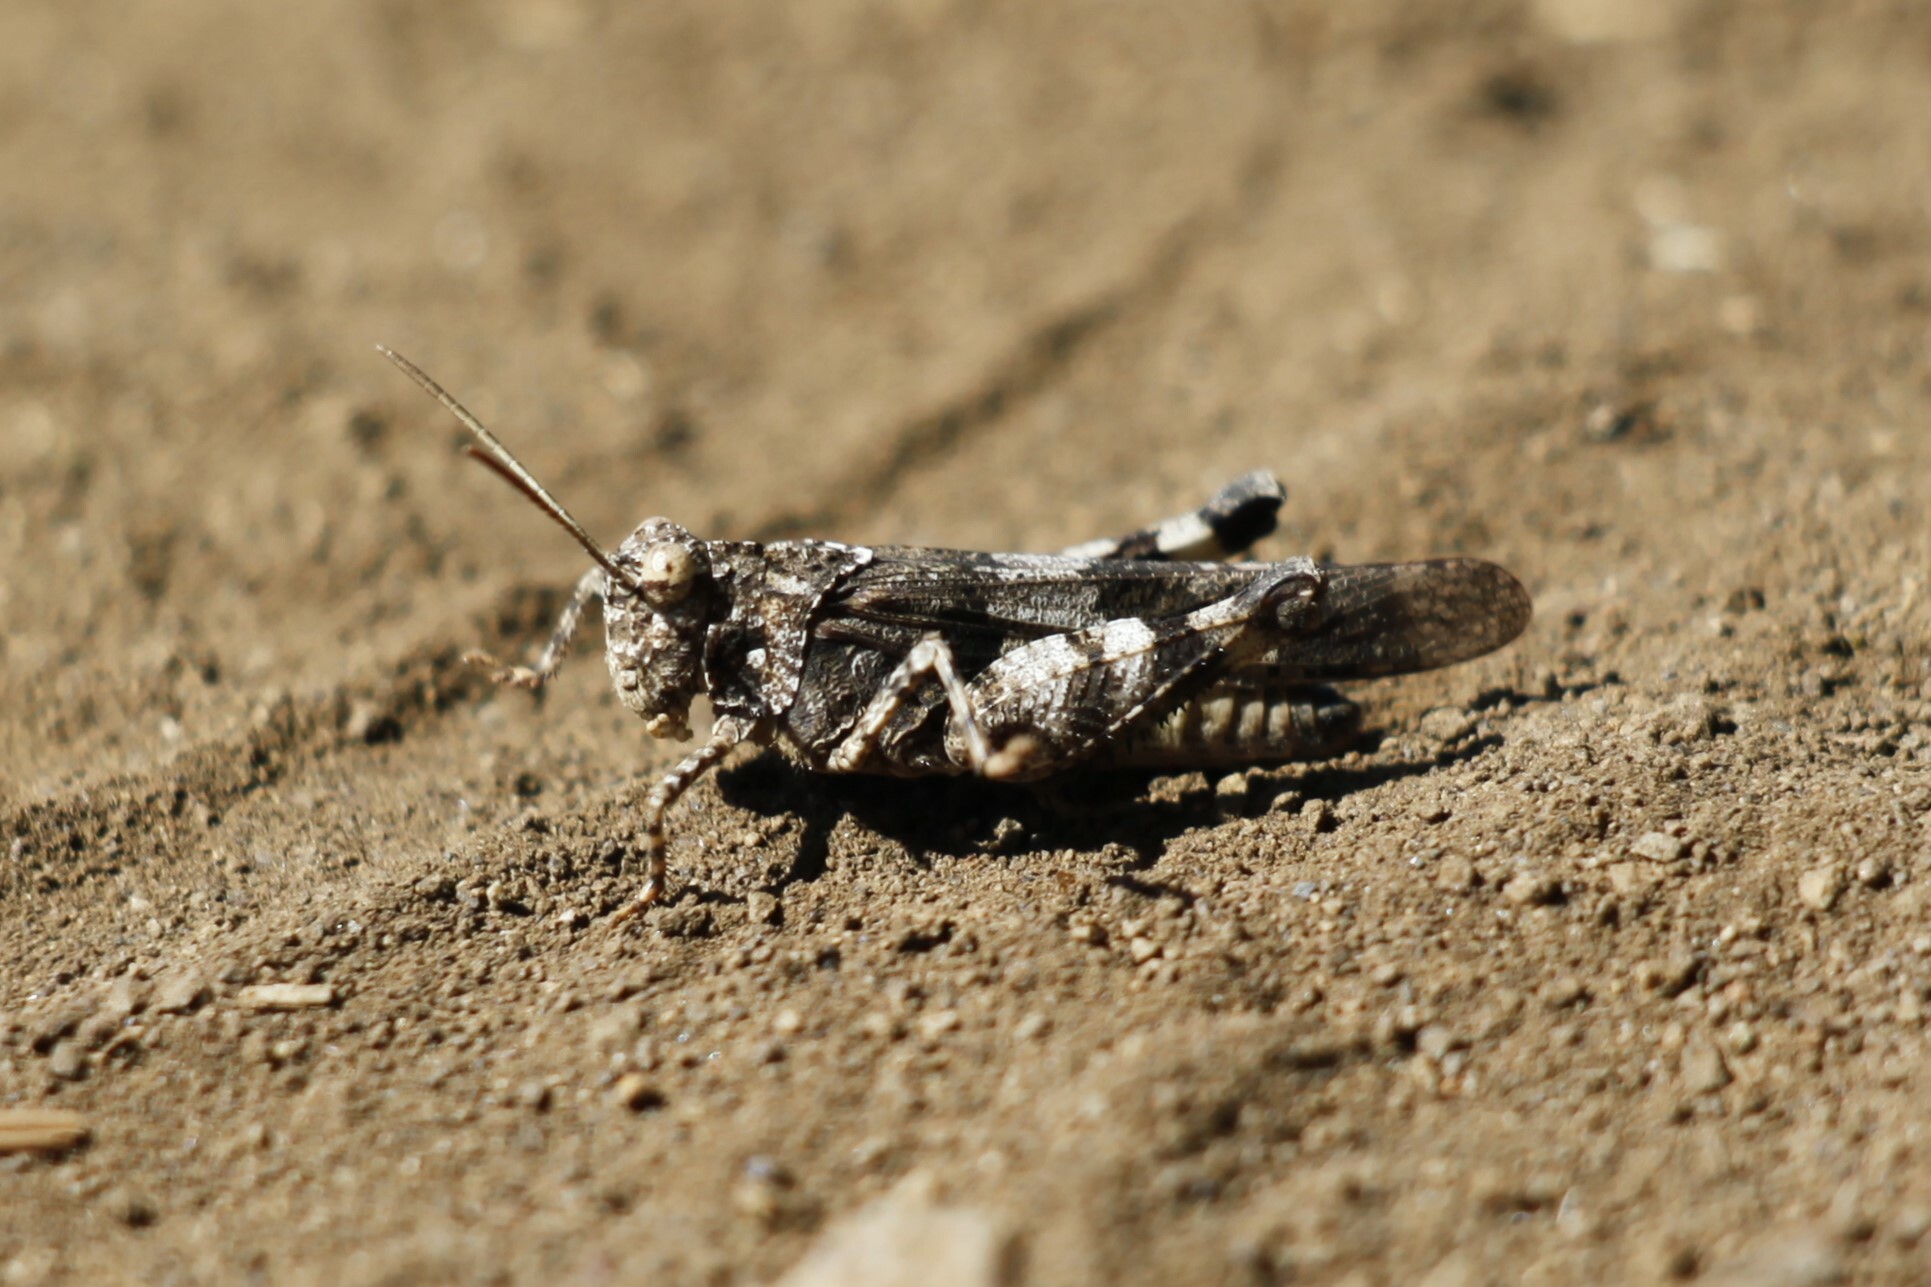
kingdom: Animalia
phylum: Arthropoda
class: Insecta
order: Orthoptera
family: Acrididae
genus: Oedipoda
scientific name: Oedipoda caerulescens
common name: Blue-winged grasshopper
